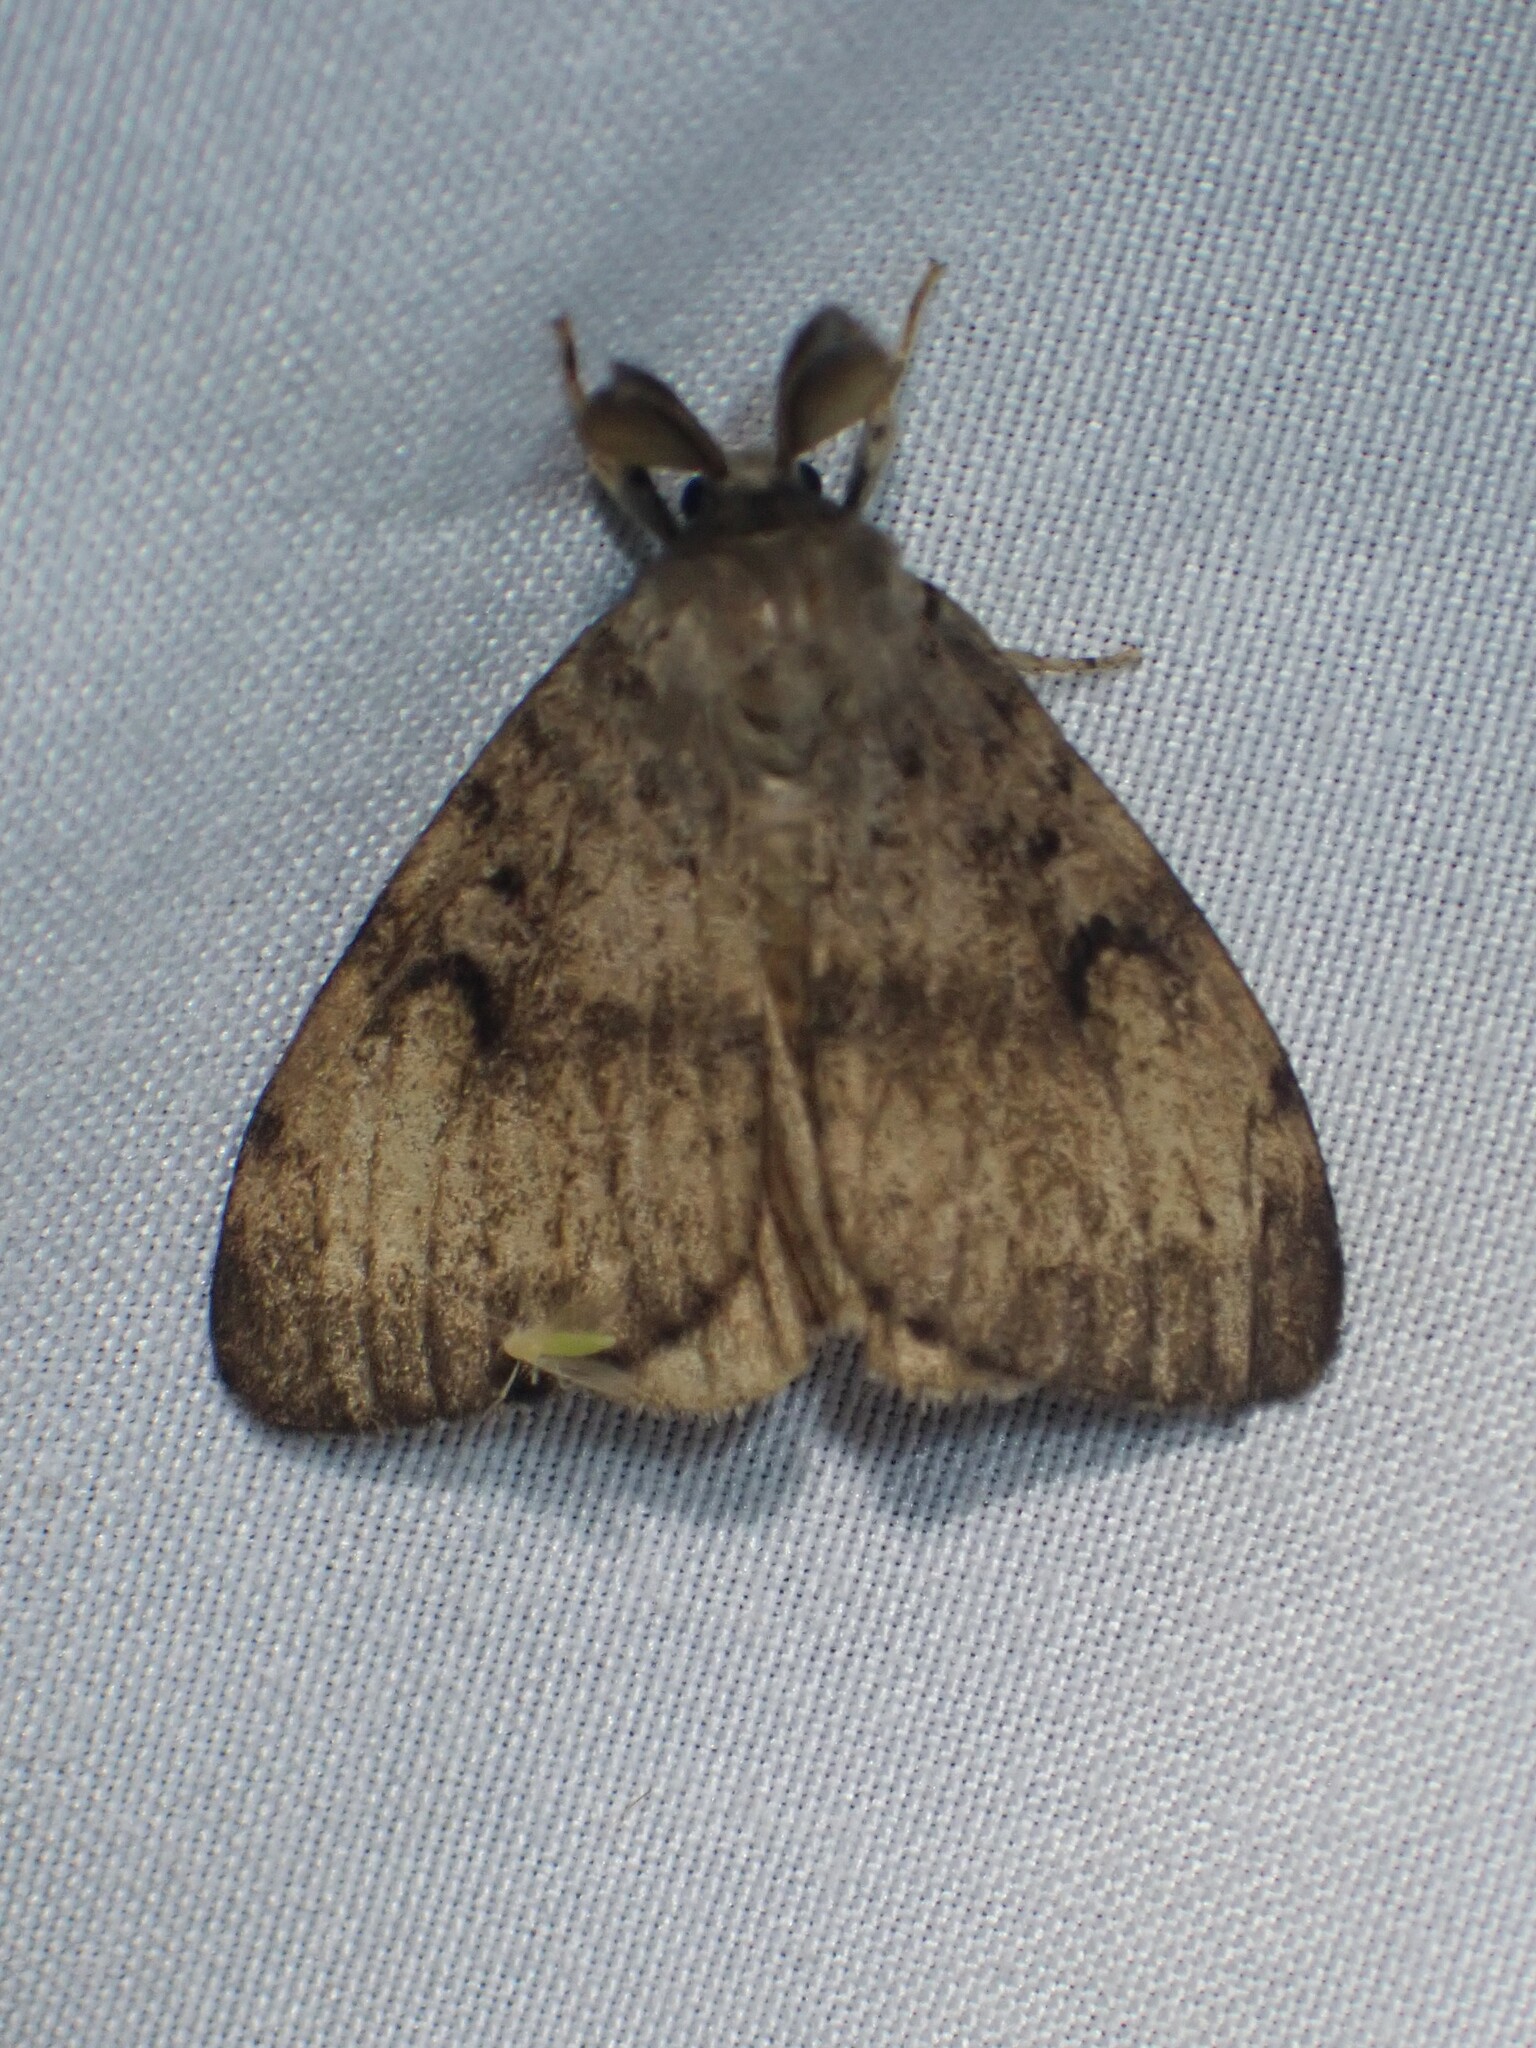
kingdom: Animalia
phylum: Arthropoda
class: Insecta
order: Lepidoptera
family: Erebidae
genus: Lymantria
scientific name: Lymantria dispar
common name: Gypsy moth
